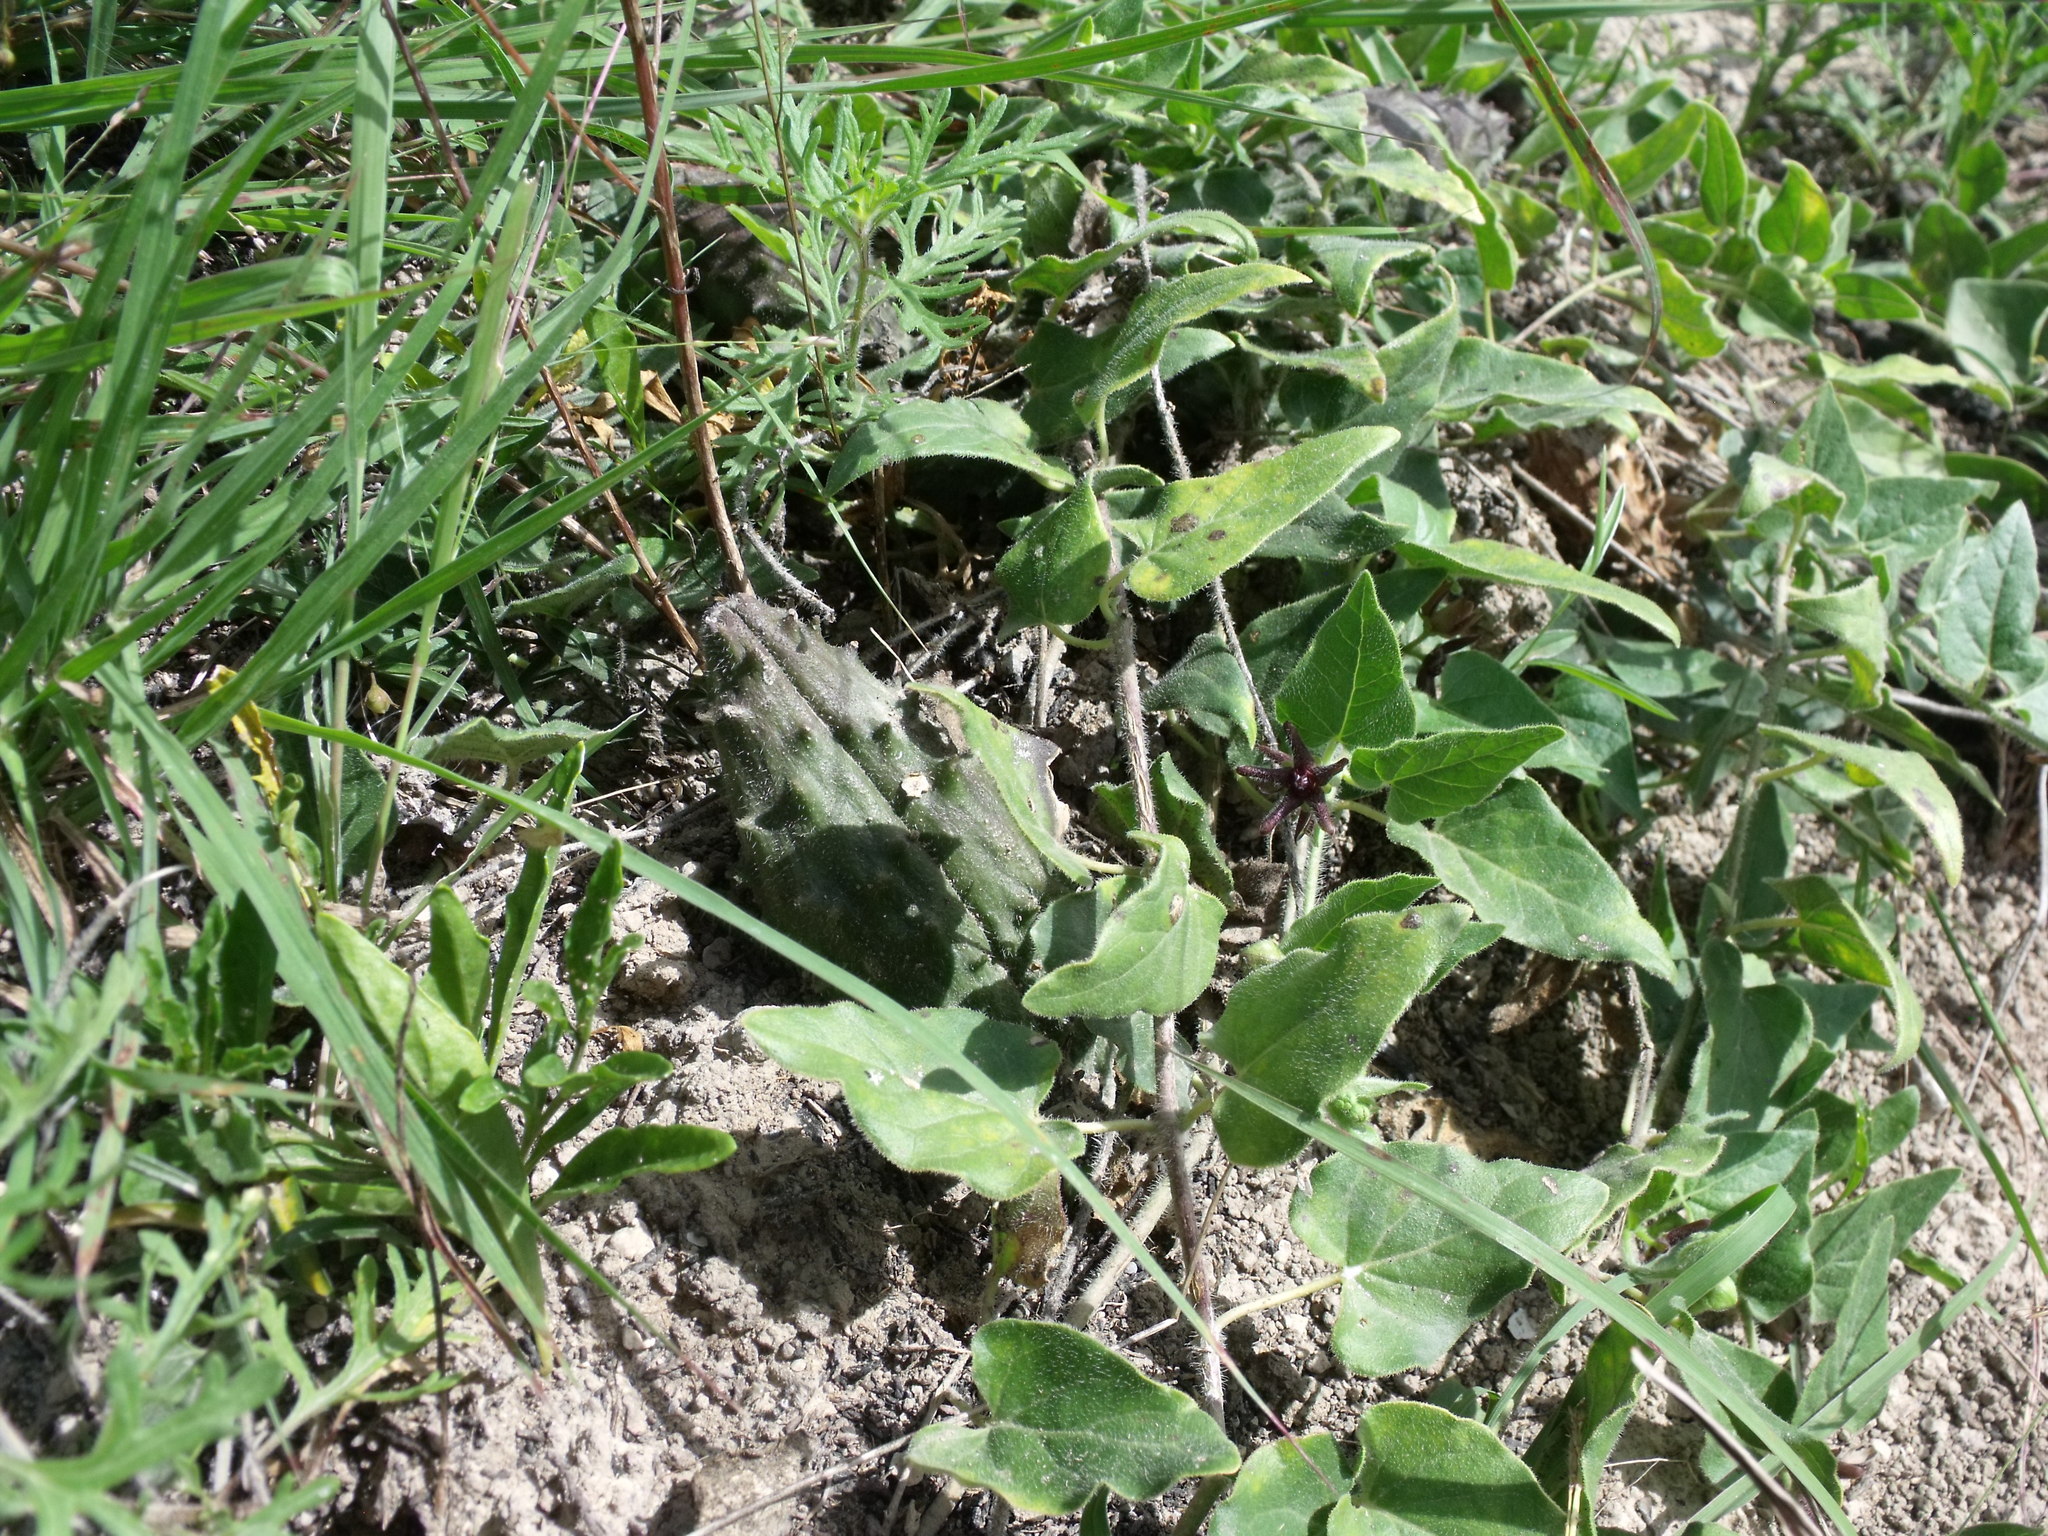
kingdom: Plantae
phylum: Tracheophyta
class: Magnoliopsida
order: Gentianales
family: Apocynaceae
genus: Chthamalia
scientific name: Chthamalia biflora
